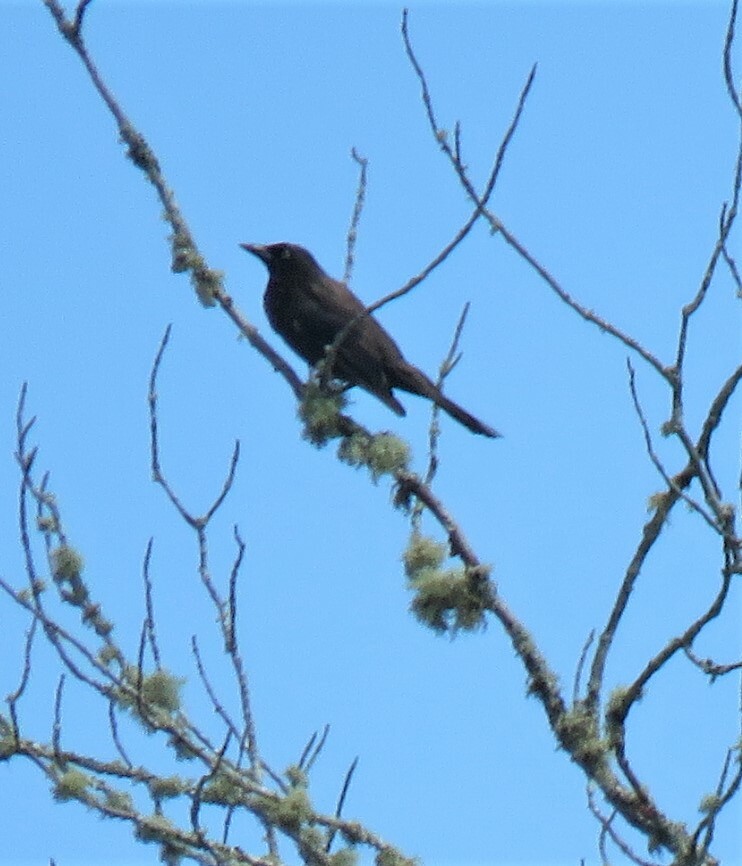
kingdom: Animalia
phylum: Chordata
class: Aves
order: Passeriformes
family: Icteridae
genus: Quiscalus
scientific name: Quiscalus quiscula
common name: Common grackle
